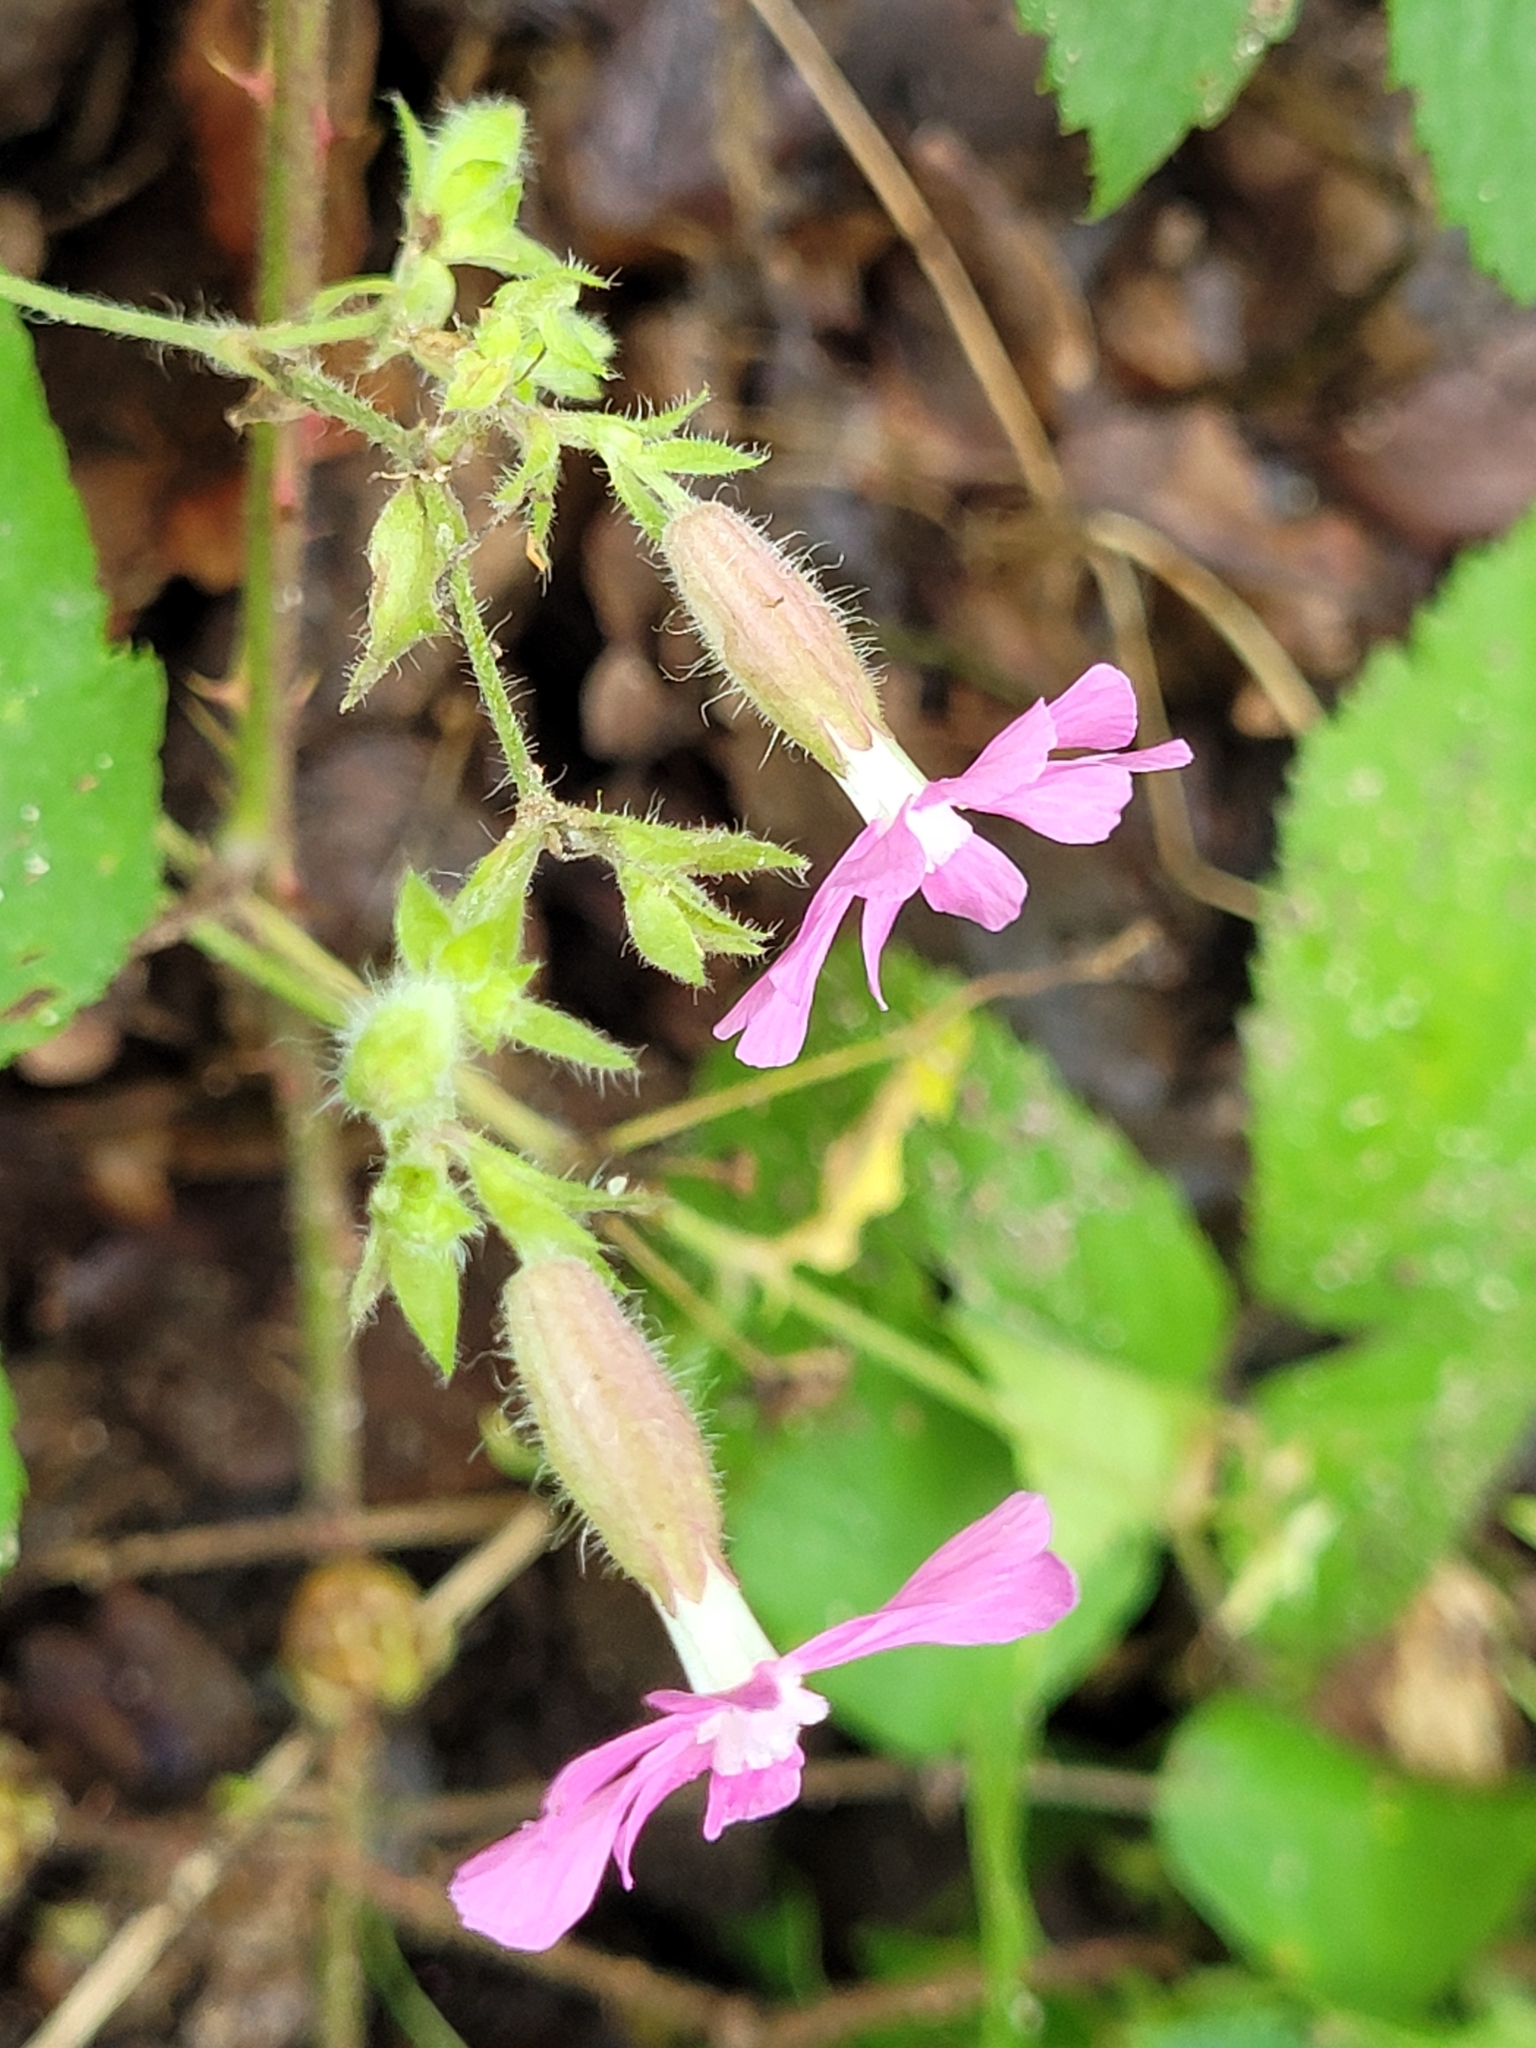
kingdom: Plantae
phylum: Tracheophyta
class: Magnoliopsida
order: Caryophyllales
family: Caryophyllaceae
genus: Silene
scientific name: Silene dioica
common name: Red campion
